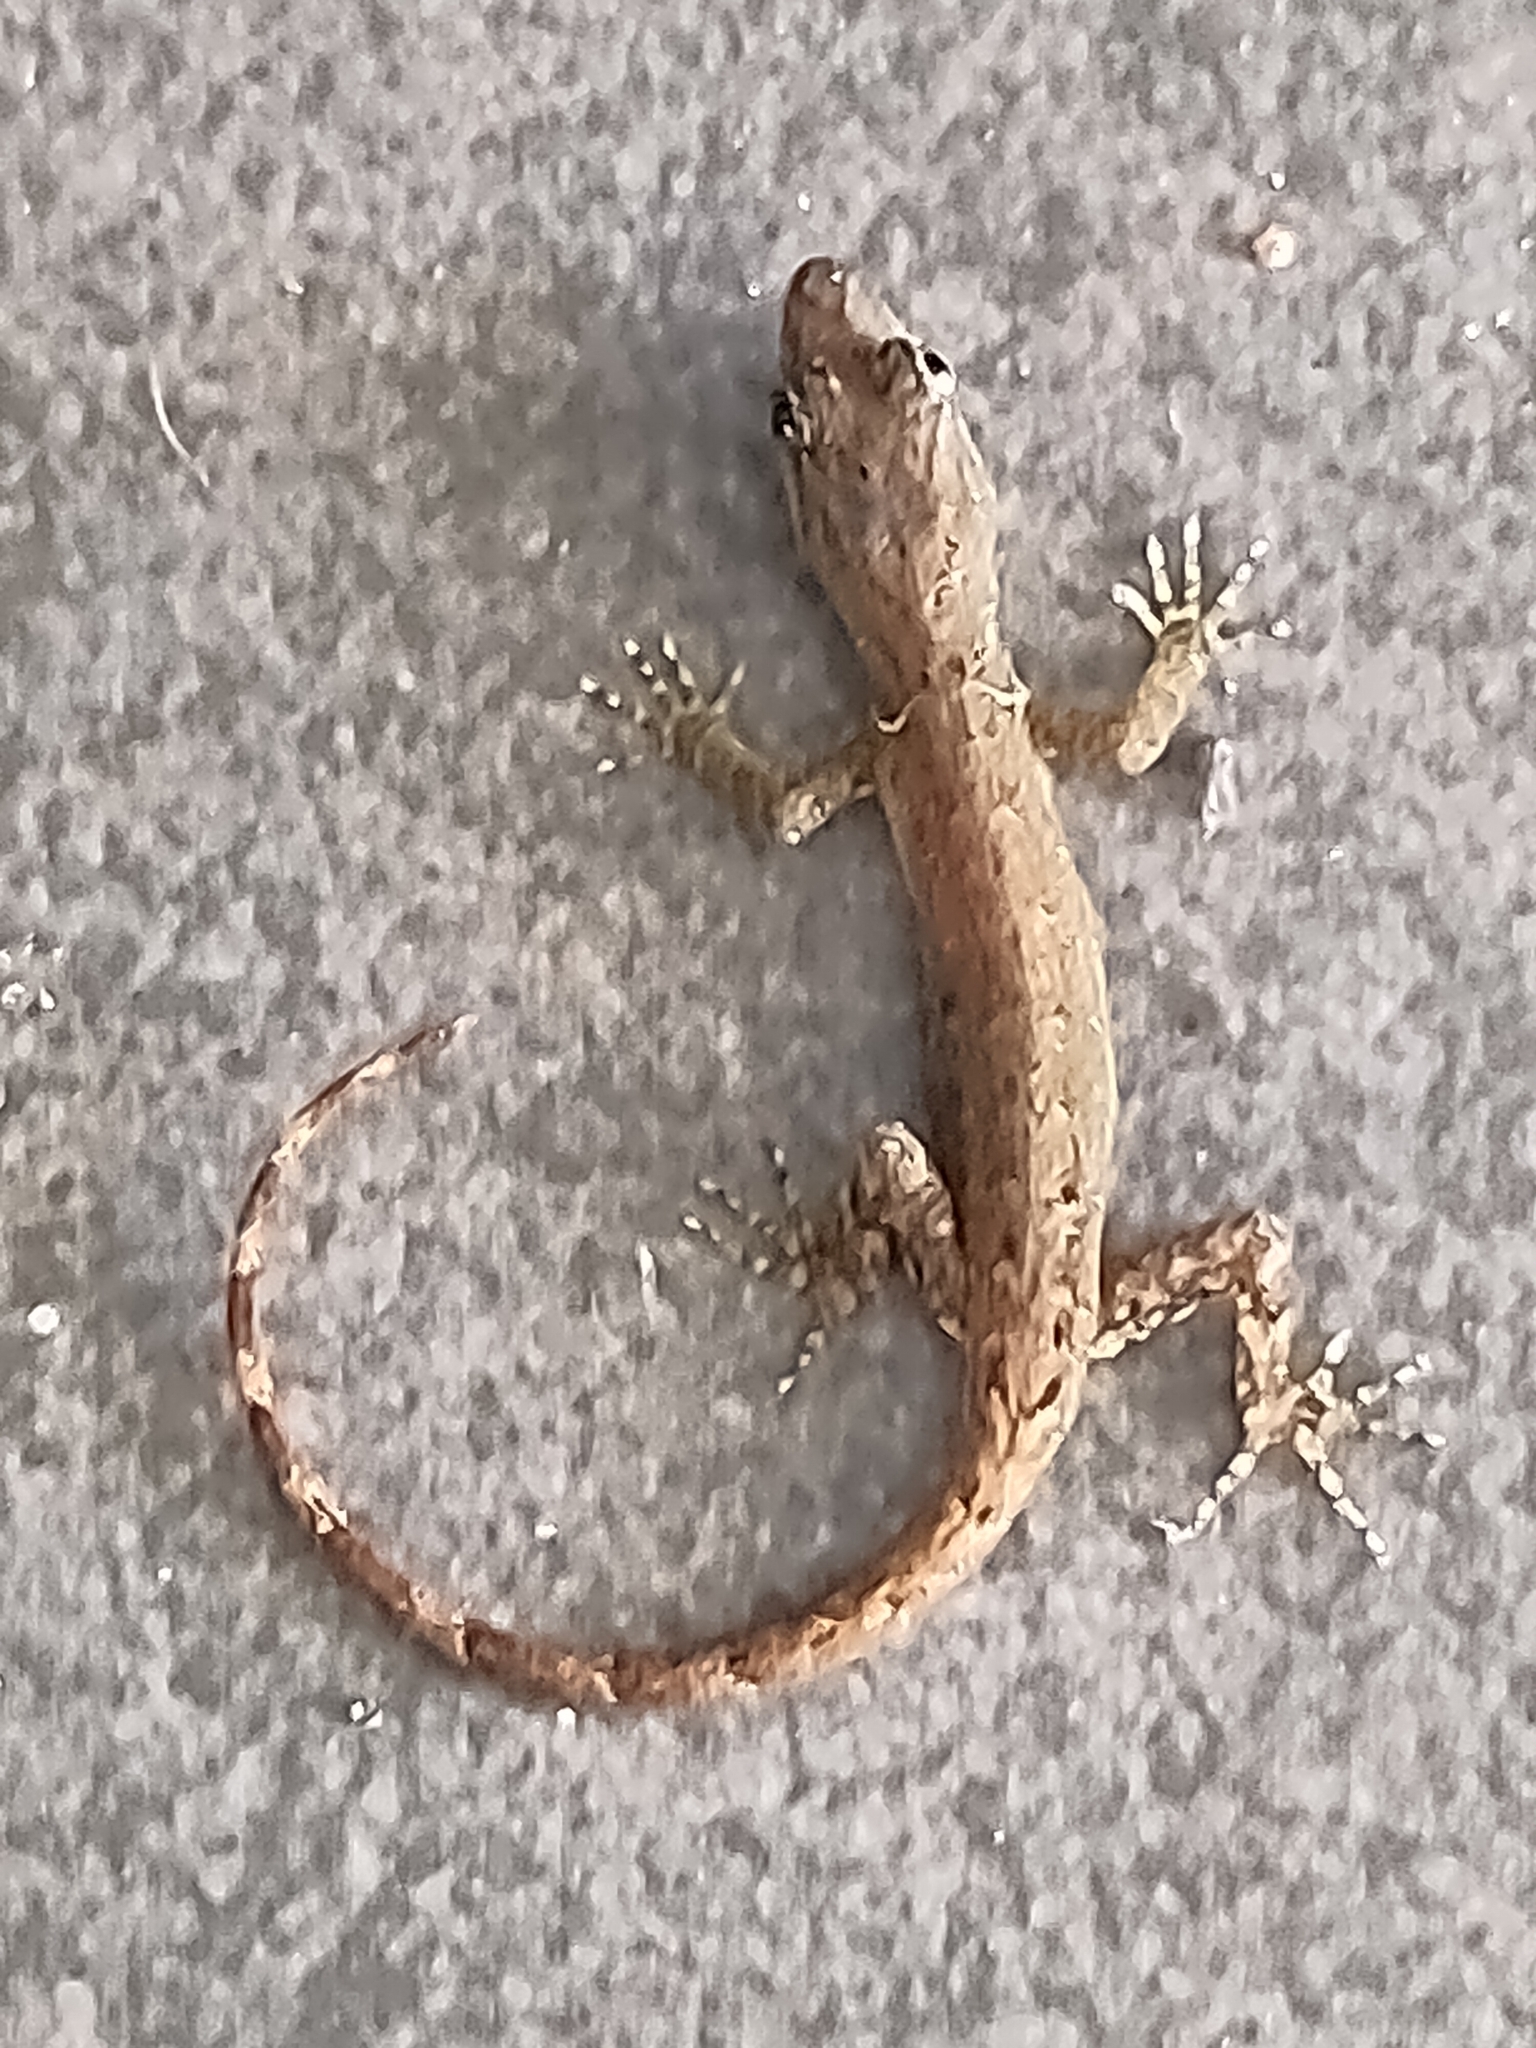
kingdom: Animalia
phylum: Chordata
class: Squamata
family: Sphaerodactylidae
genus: Gonatodes
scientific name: Gonatodes humeralis
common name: South american clawed gecko
